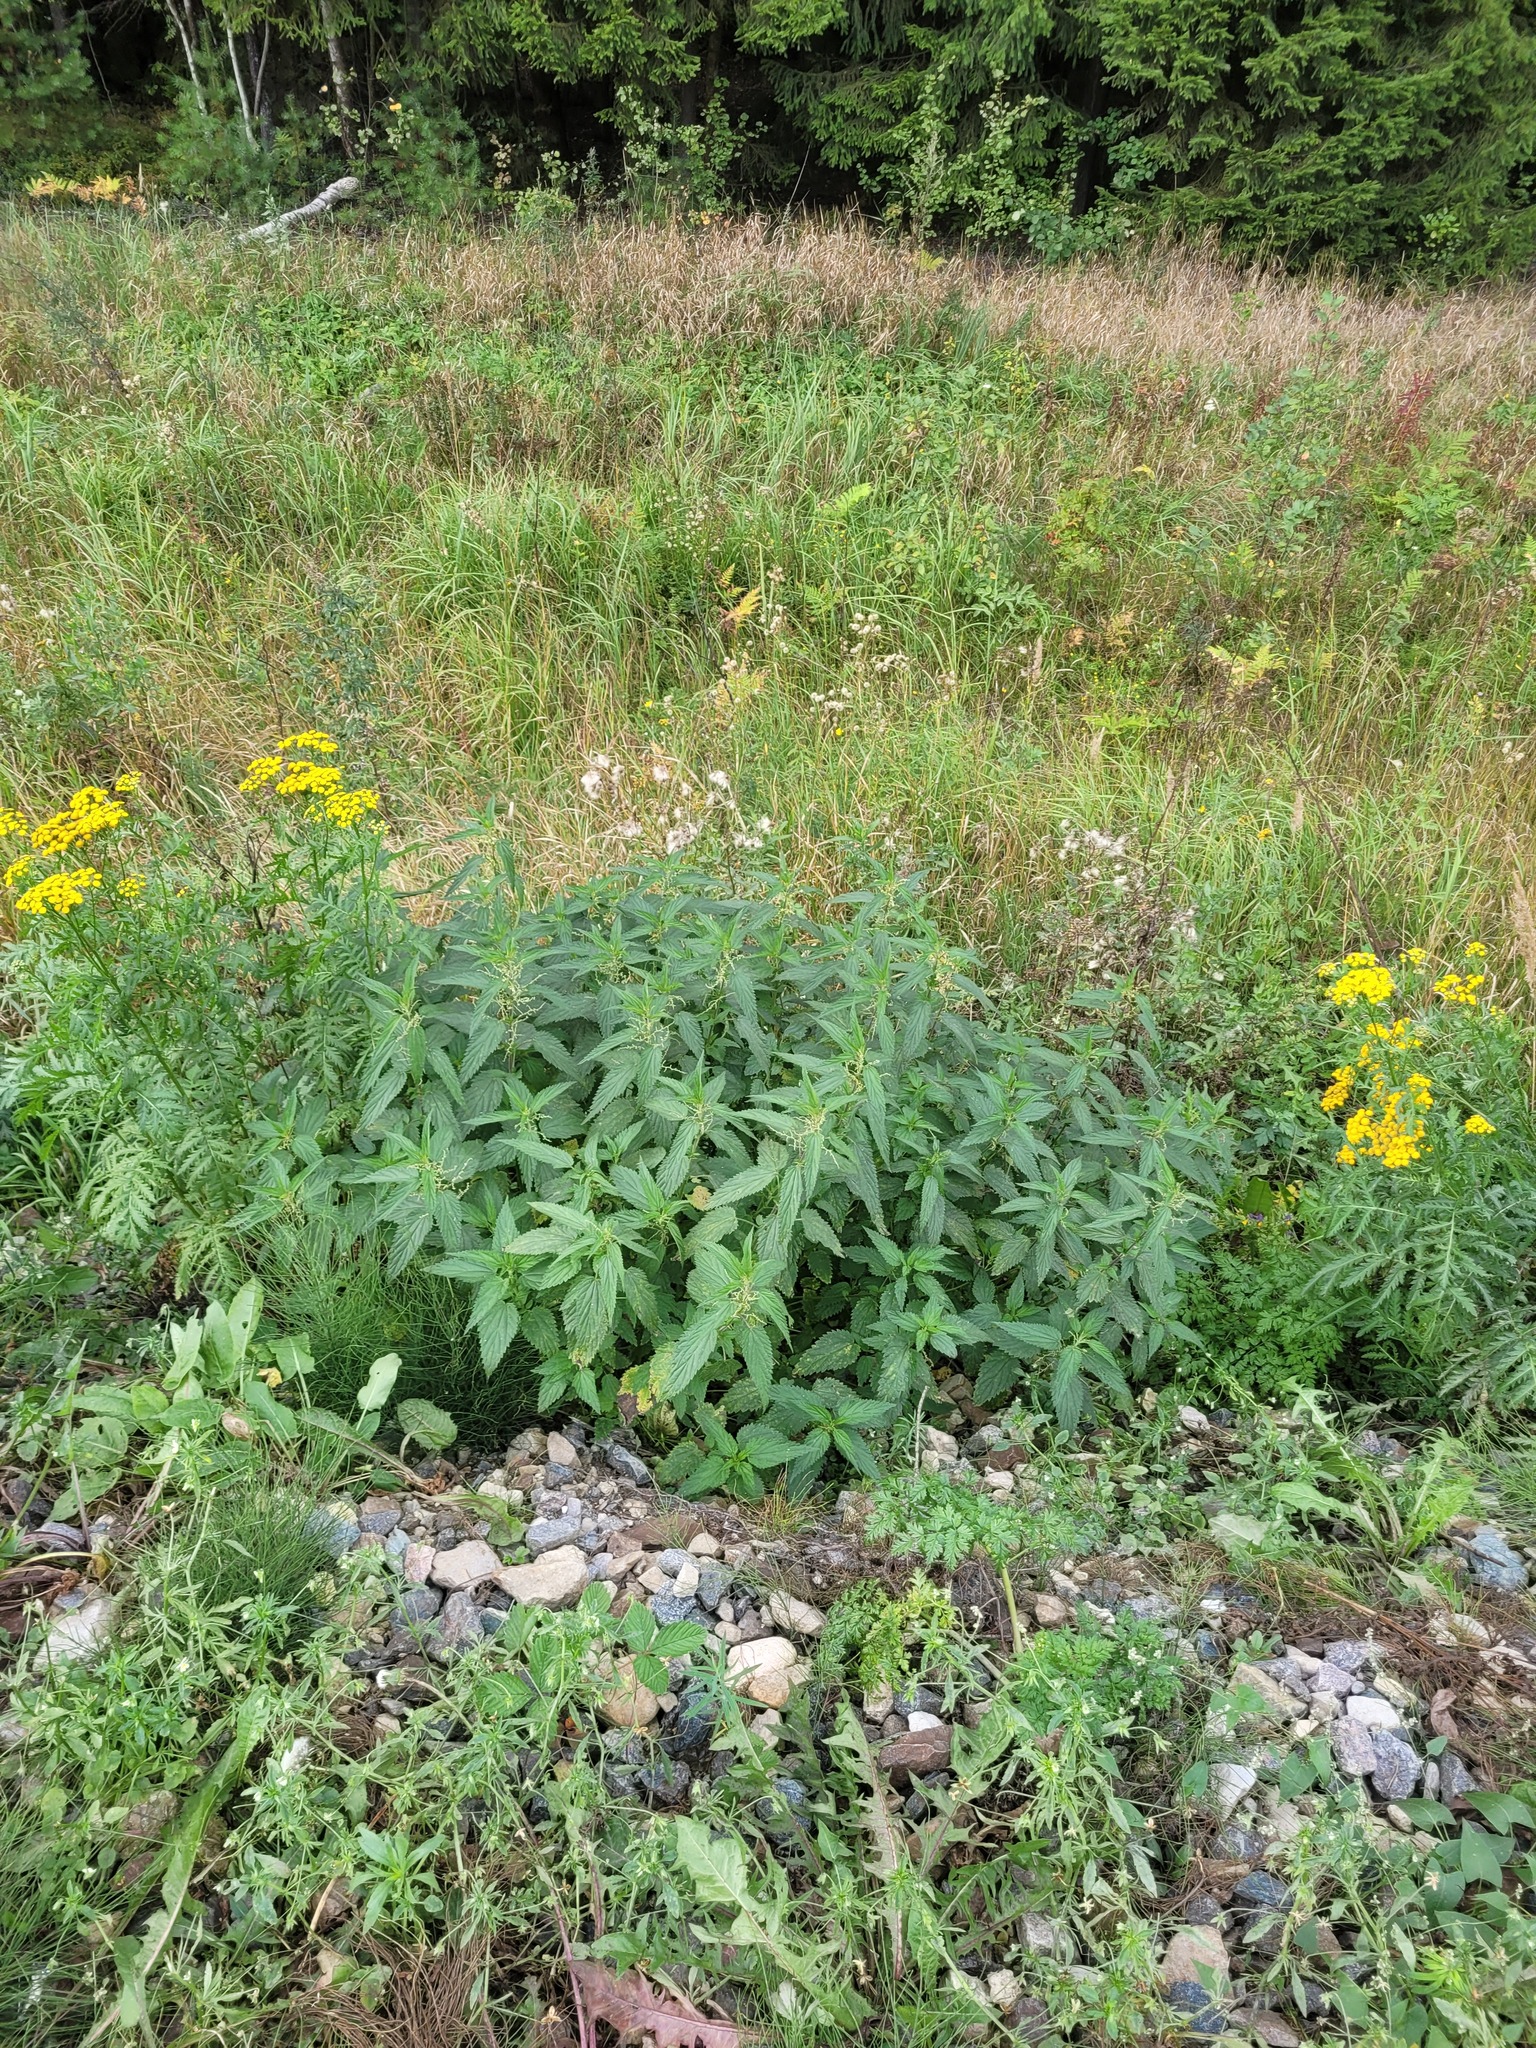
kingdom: Plantae
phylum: Tracheophyta
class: Magnoliopsida
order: Rosales
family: Urticaceae
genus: Urtica
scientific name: Urtica dioica
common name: Common nettle
